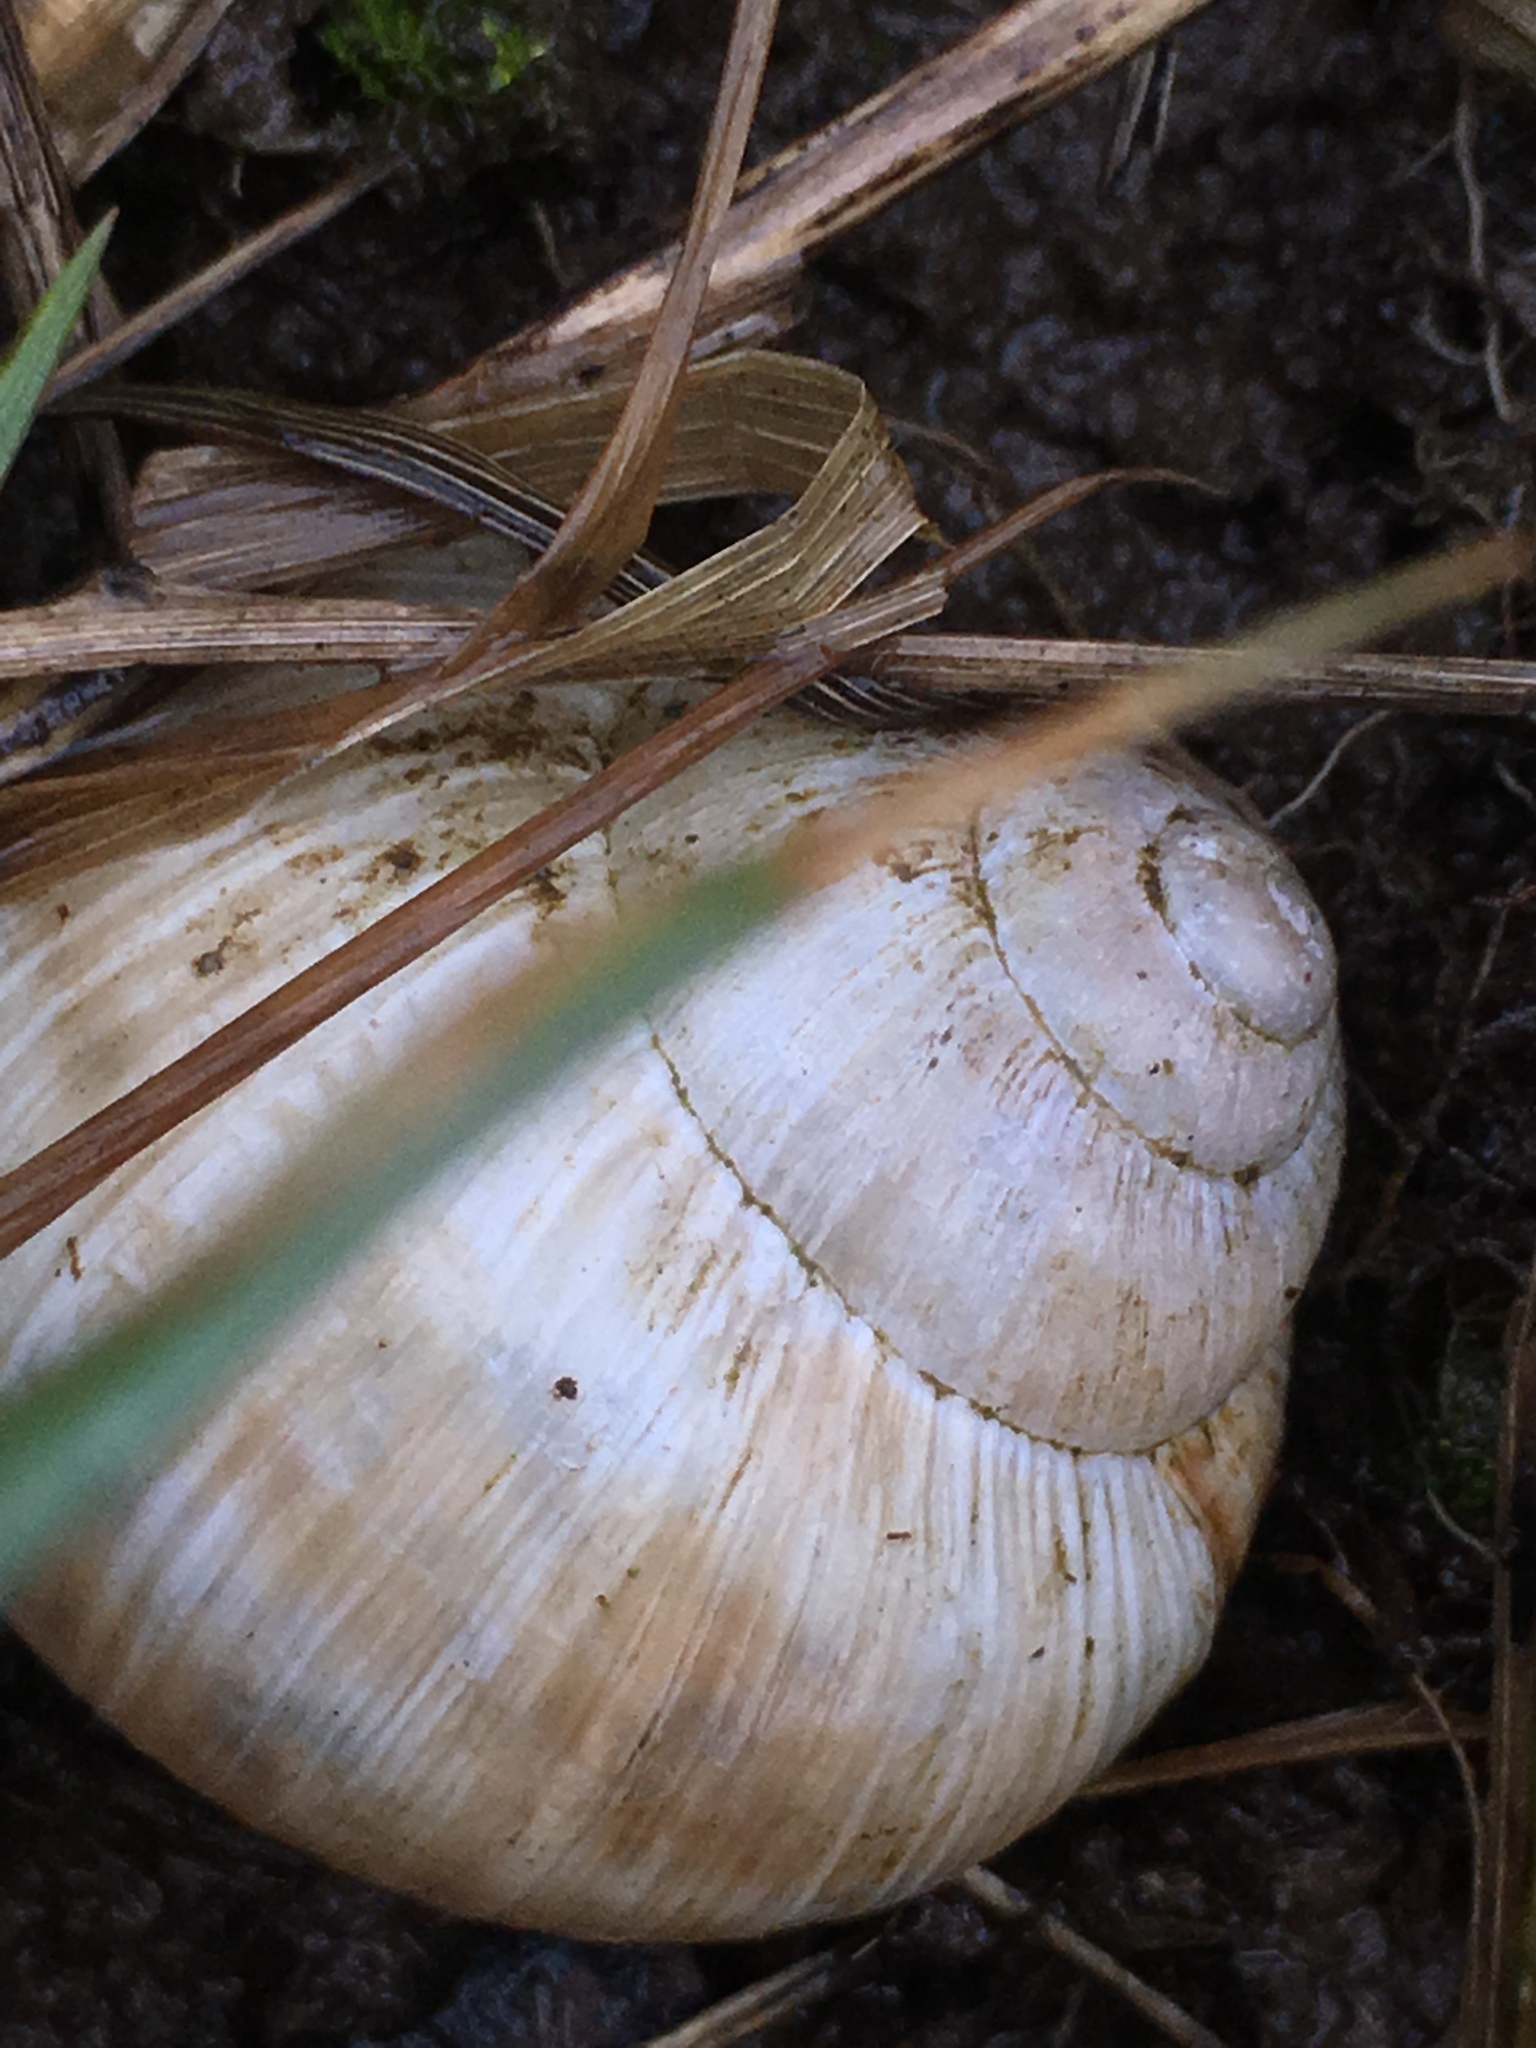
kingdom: Animalia
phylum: Mollusca
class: Gastropoda
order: Stylommatophora
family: Helicidae
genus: Helix
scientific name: Helix pomatia
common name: Roman snail
